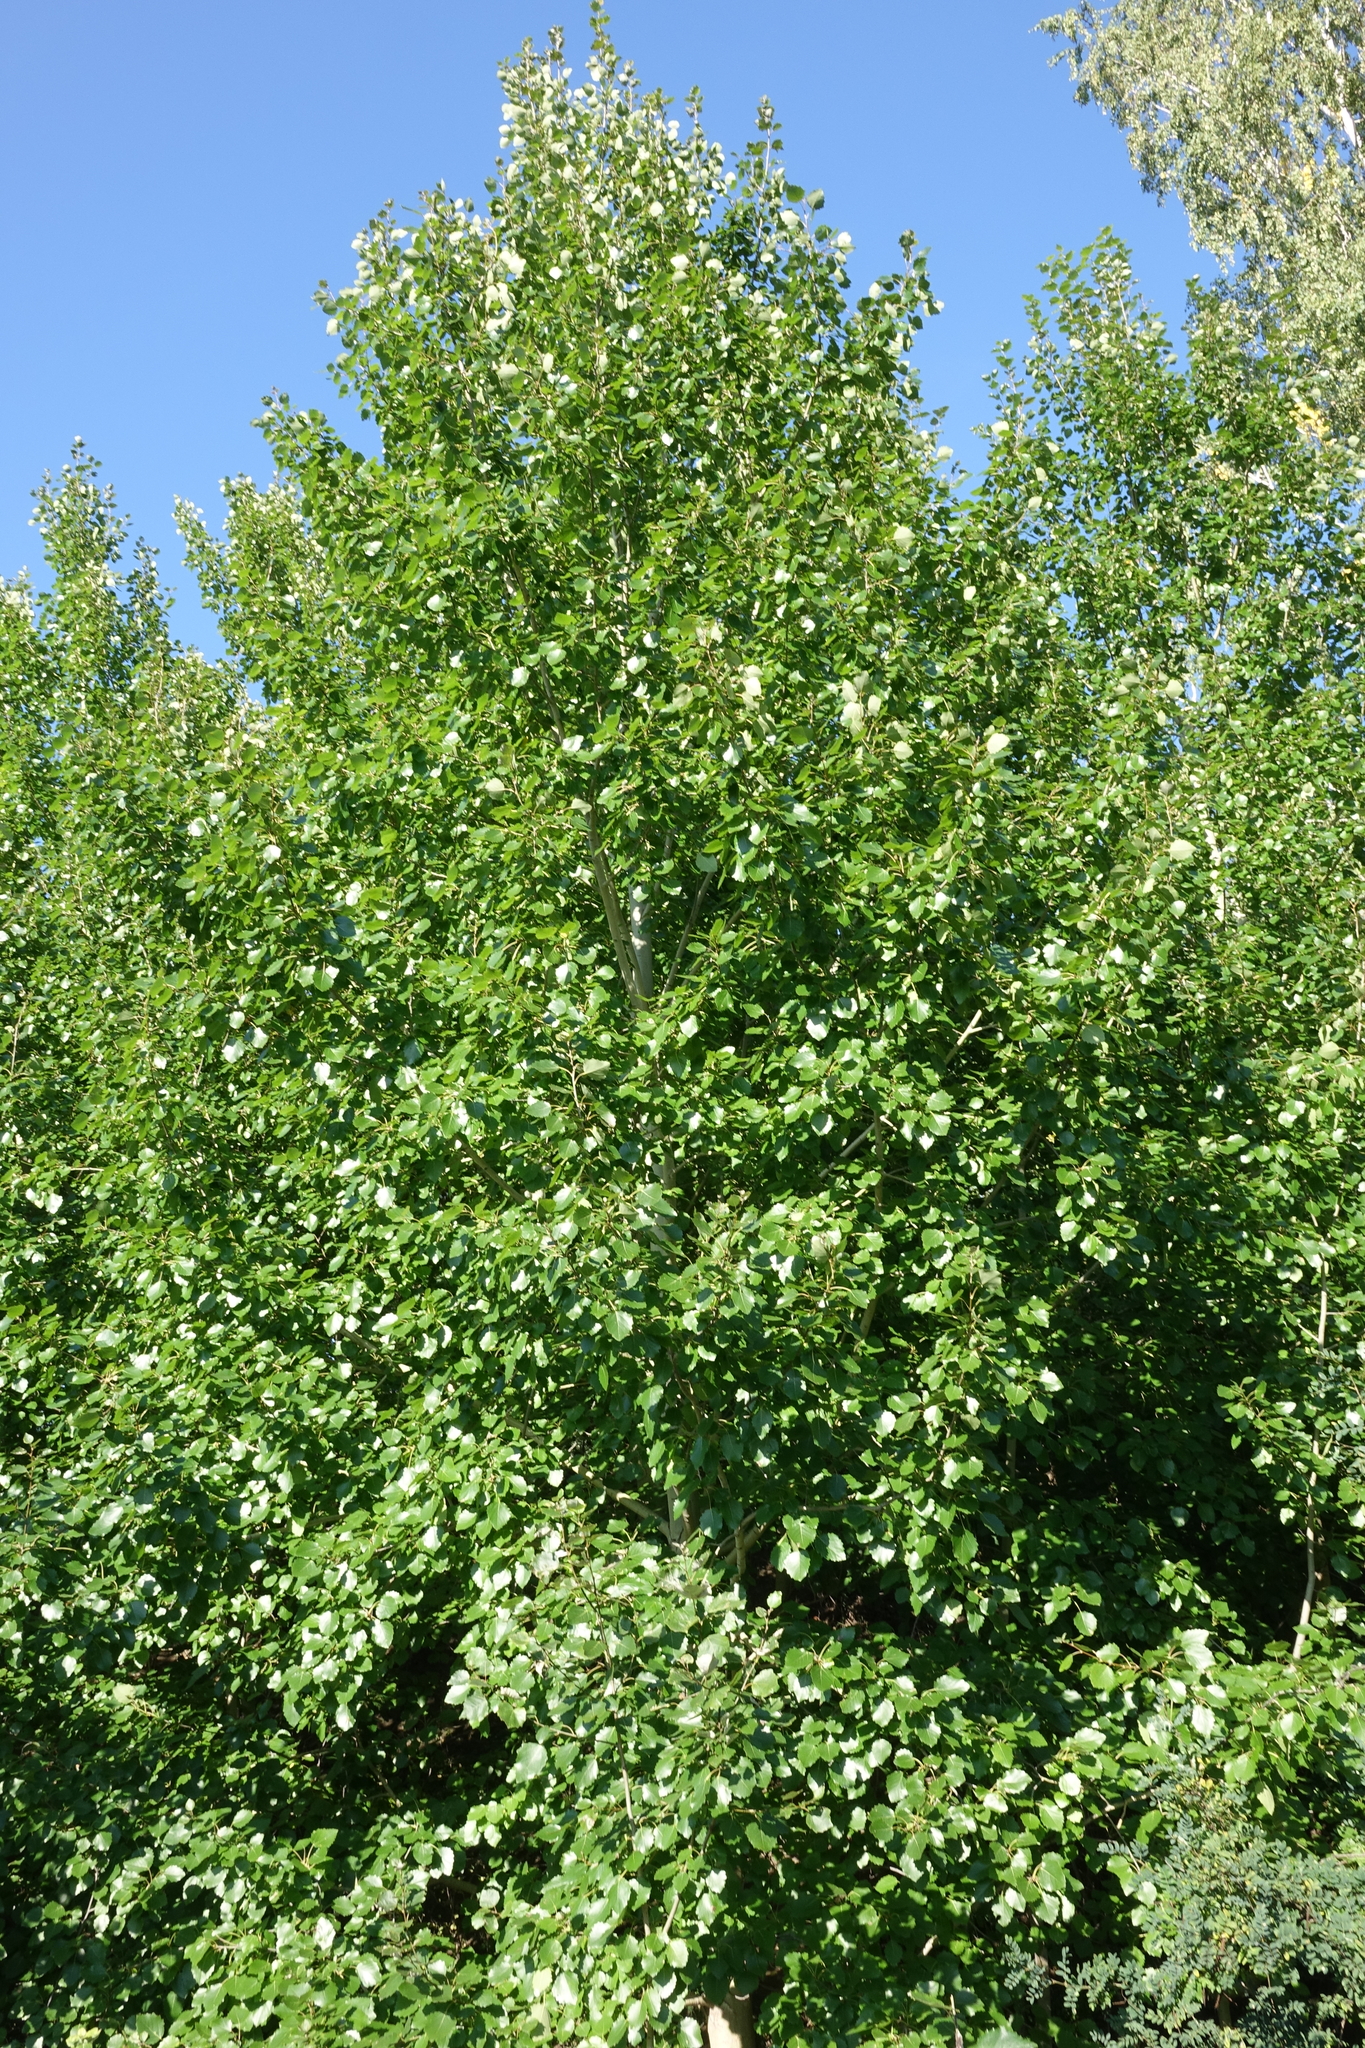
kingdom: Plantae
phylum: Tracheophyta
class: Magnoliopsida
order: Malpighiales
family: Salicaceae
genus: Populus
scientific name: Populus tremula
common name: European aspen
